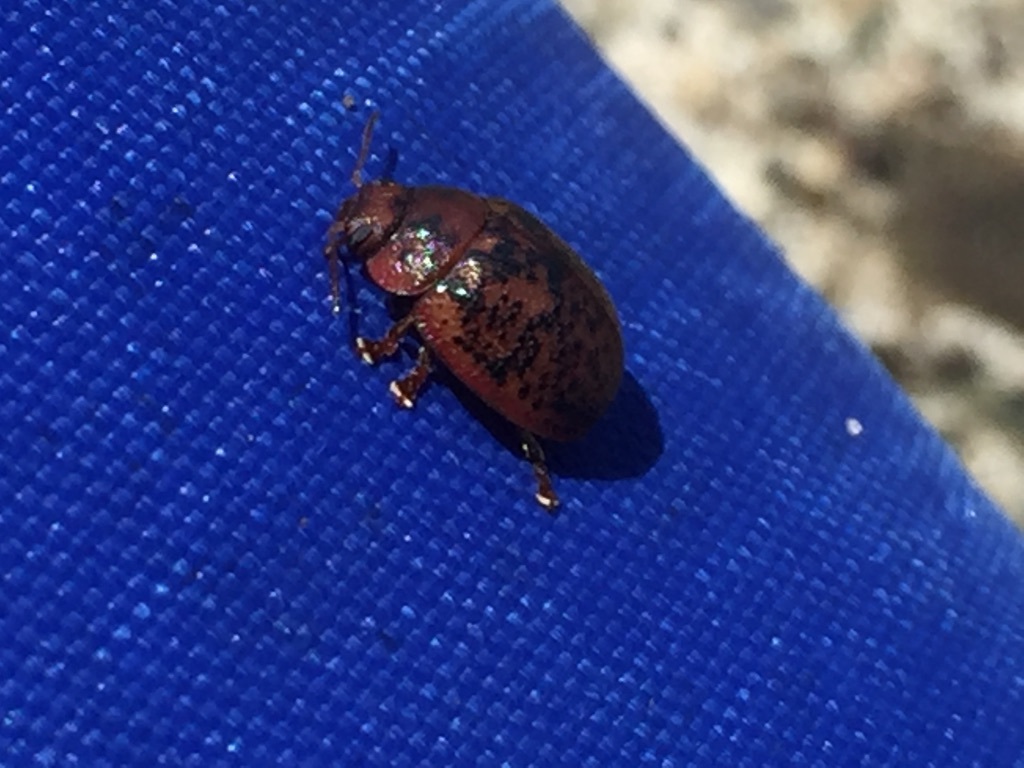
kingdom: Animalia
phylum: Arthropoda
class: Insecta
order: Coleoptera
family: Chrysomelidae
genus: Trachymela
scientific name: Trachymela sloanei
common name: Australian tortoise beetle
